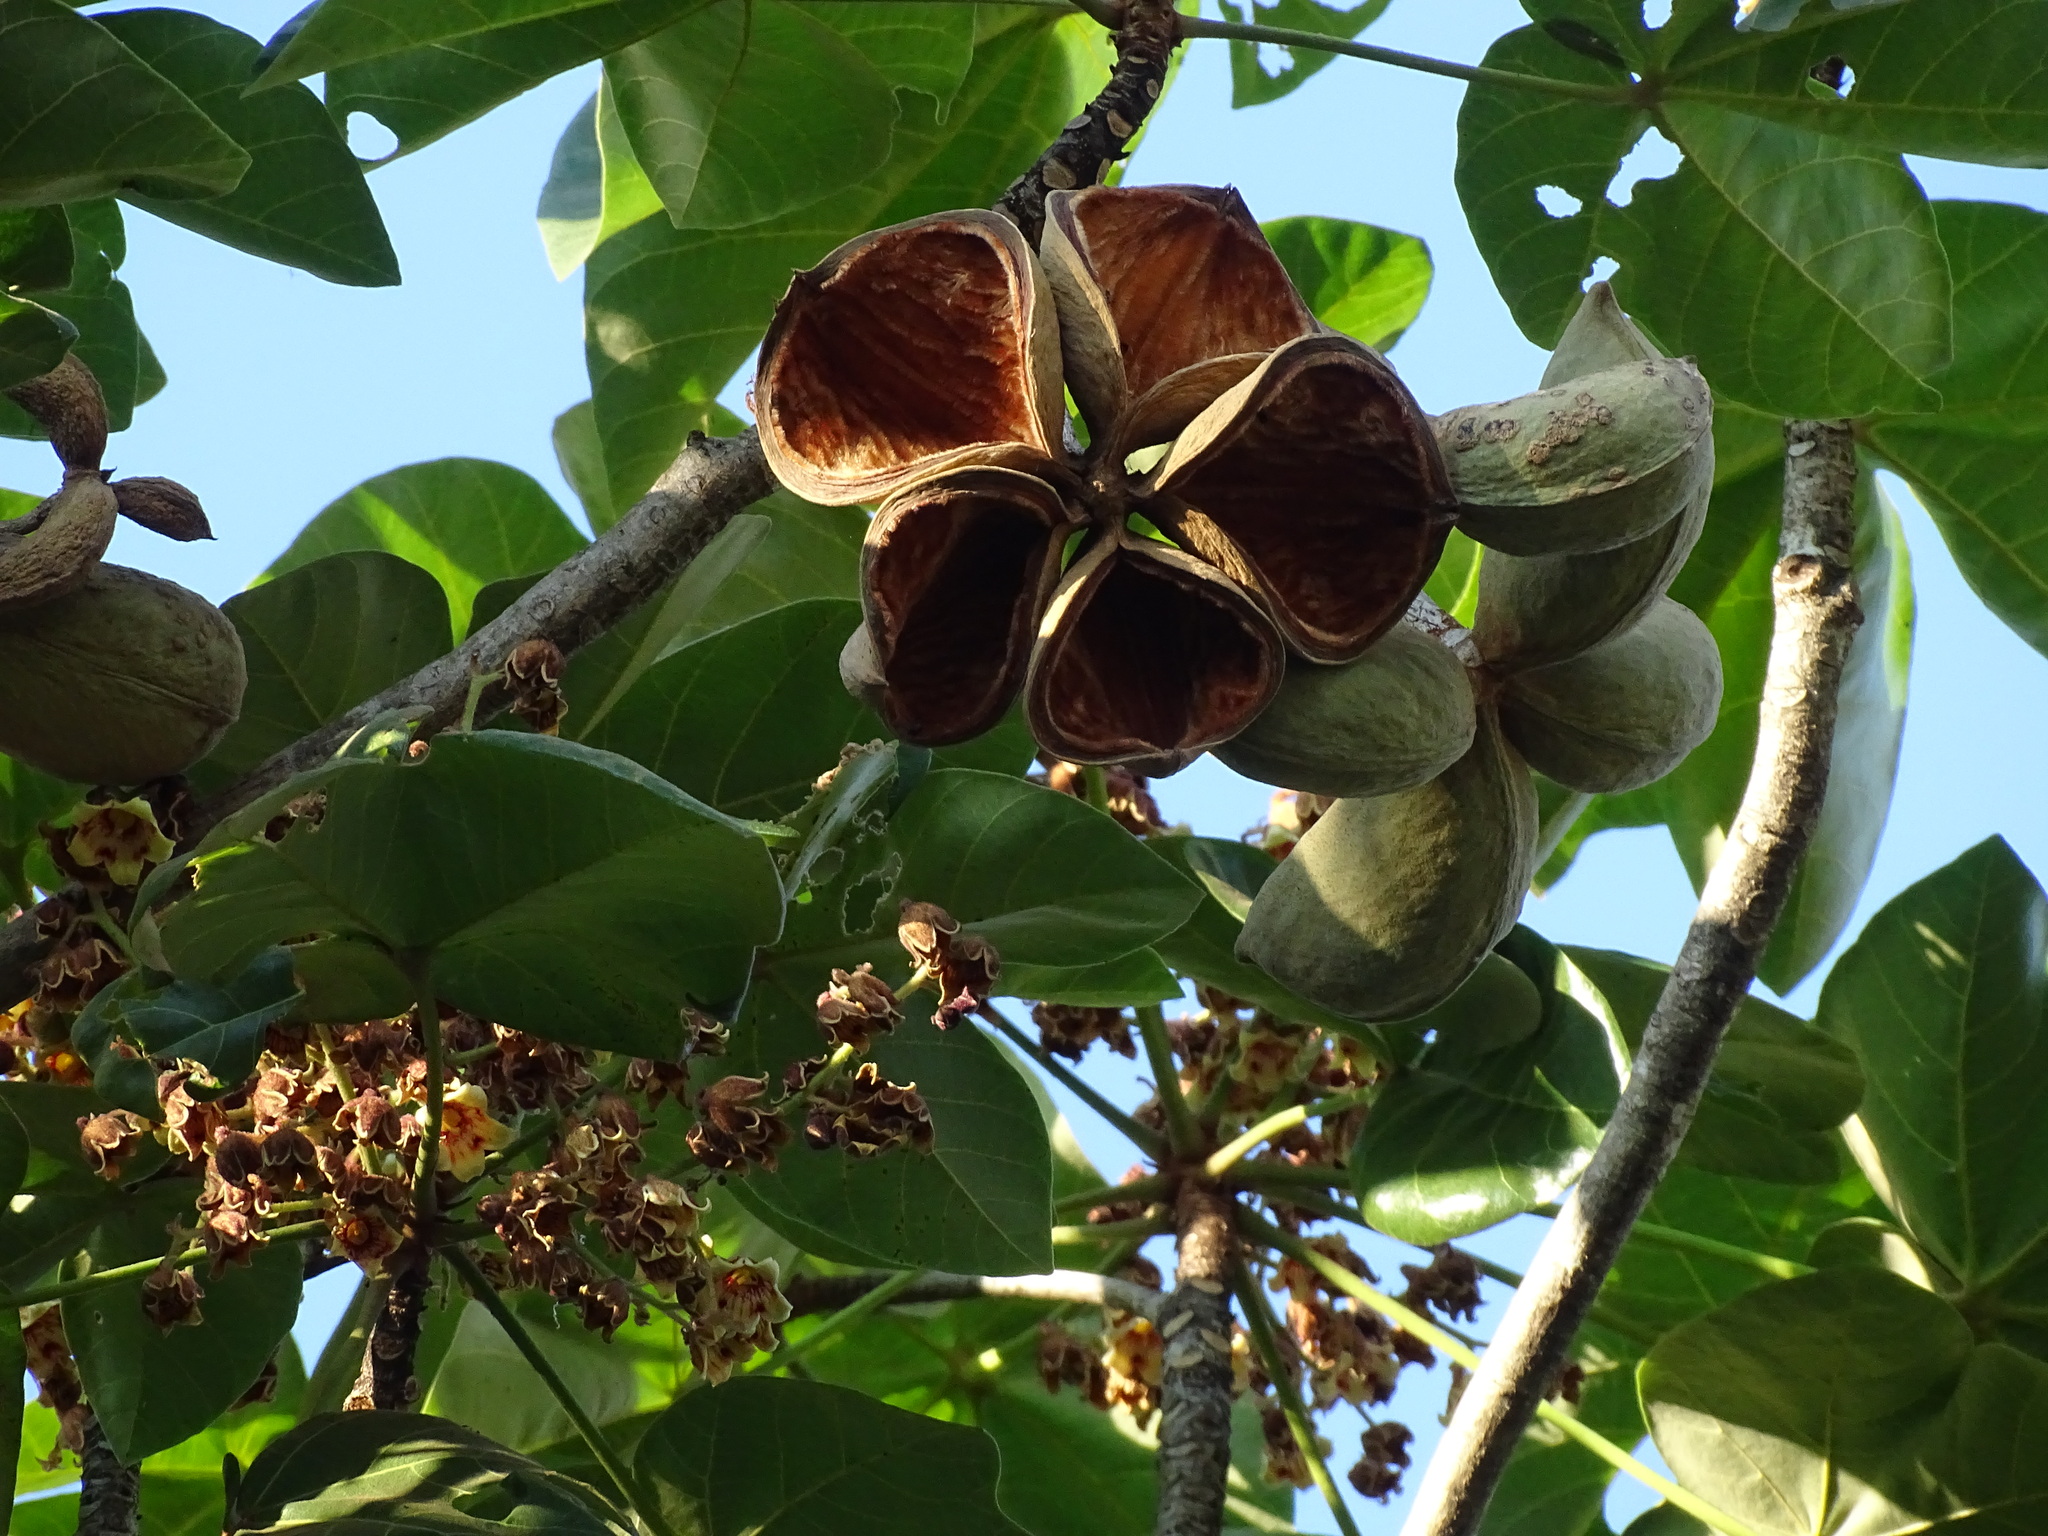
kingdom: Plantae
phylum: Tracheophyta
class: Magnoliopsida
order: Malvales
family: Malvaceae
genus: Sterculia
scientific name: Sterculia apetala
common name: Panama tree
